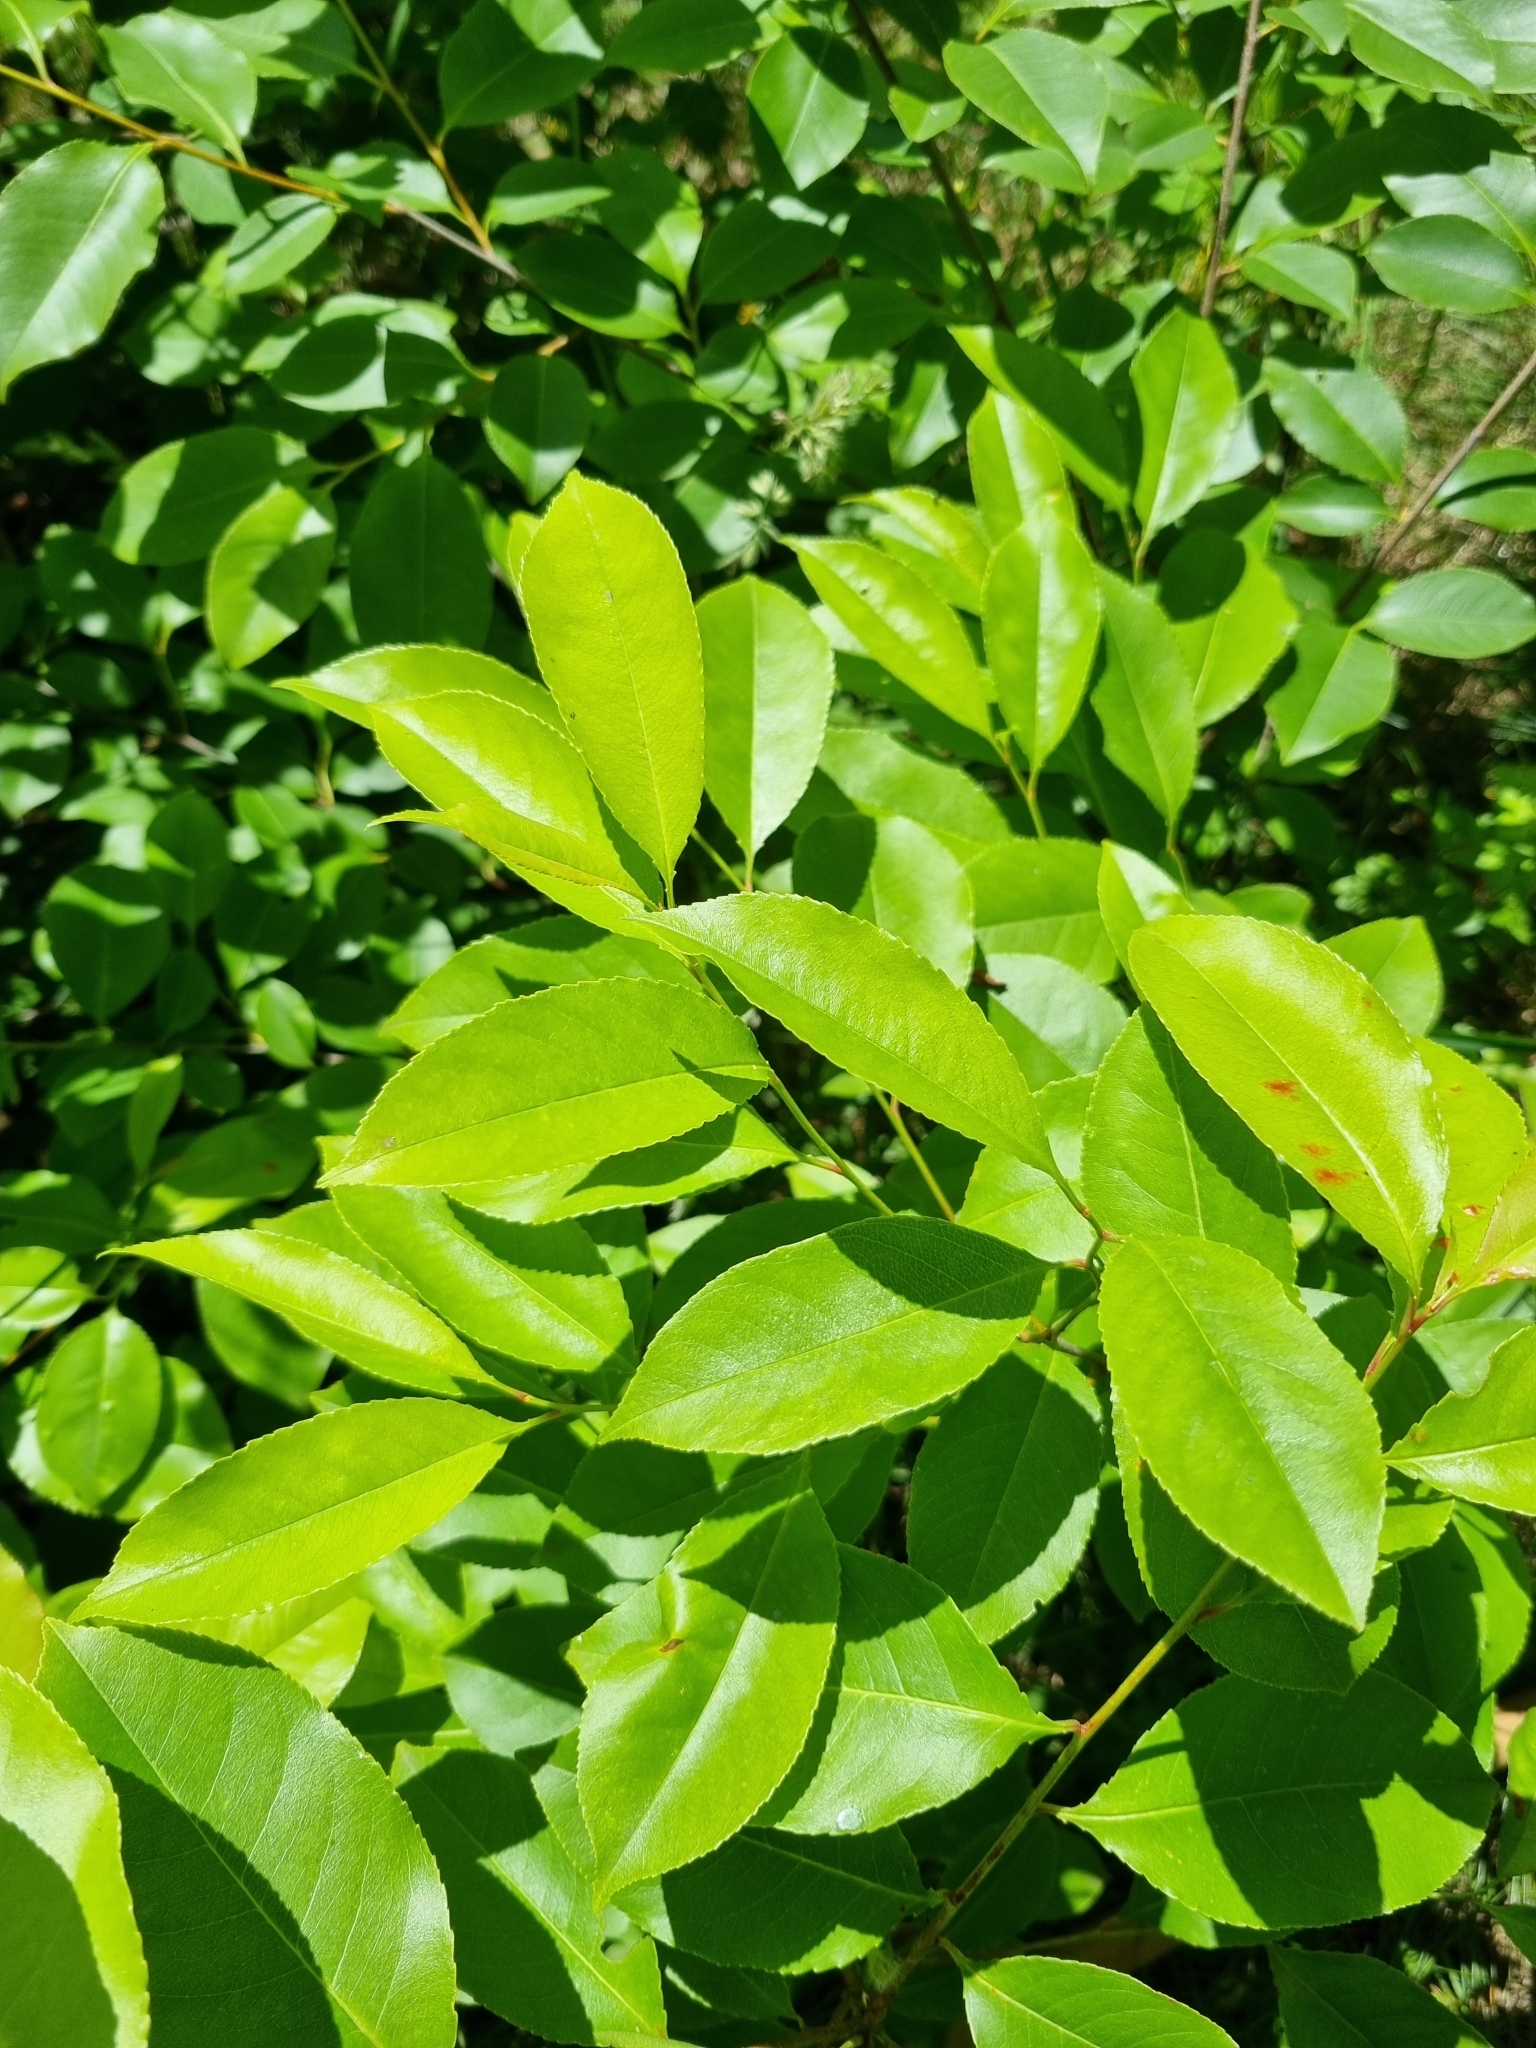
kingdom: Plantae
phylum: Tracheophyta
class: Magnoliopsida
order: Rosales
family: Rosaceae
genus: Prunus
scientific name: Prunus serotina
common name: Black cherry
